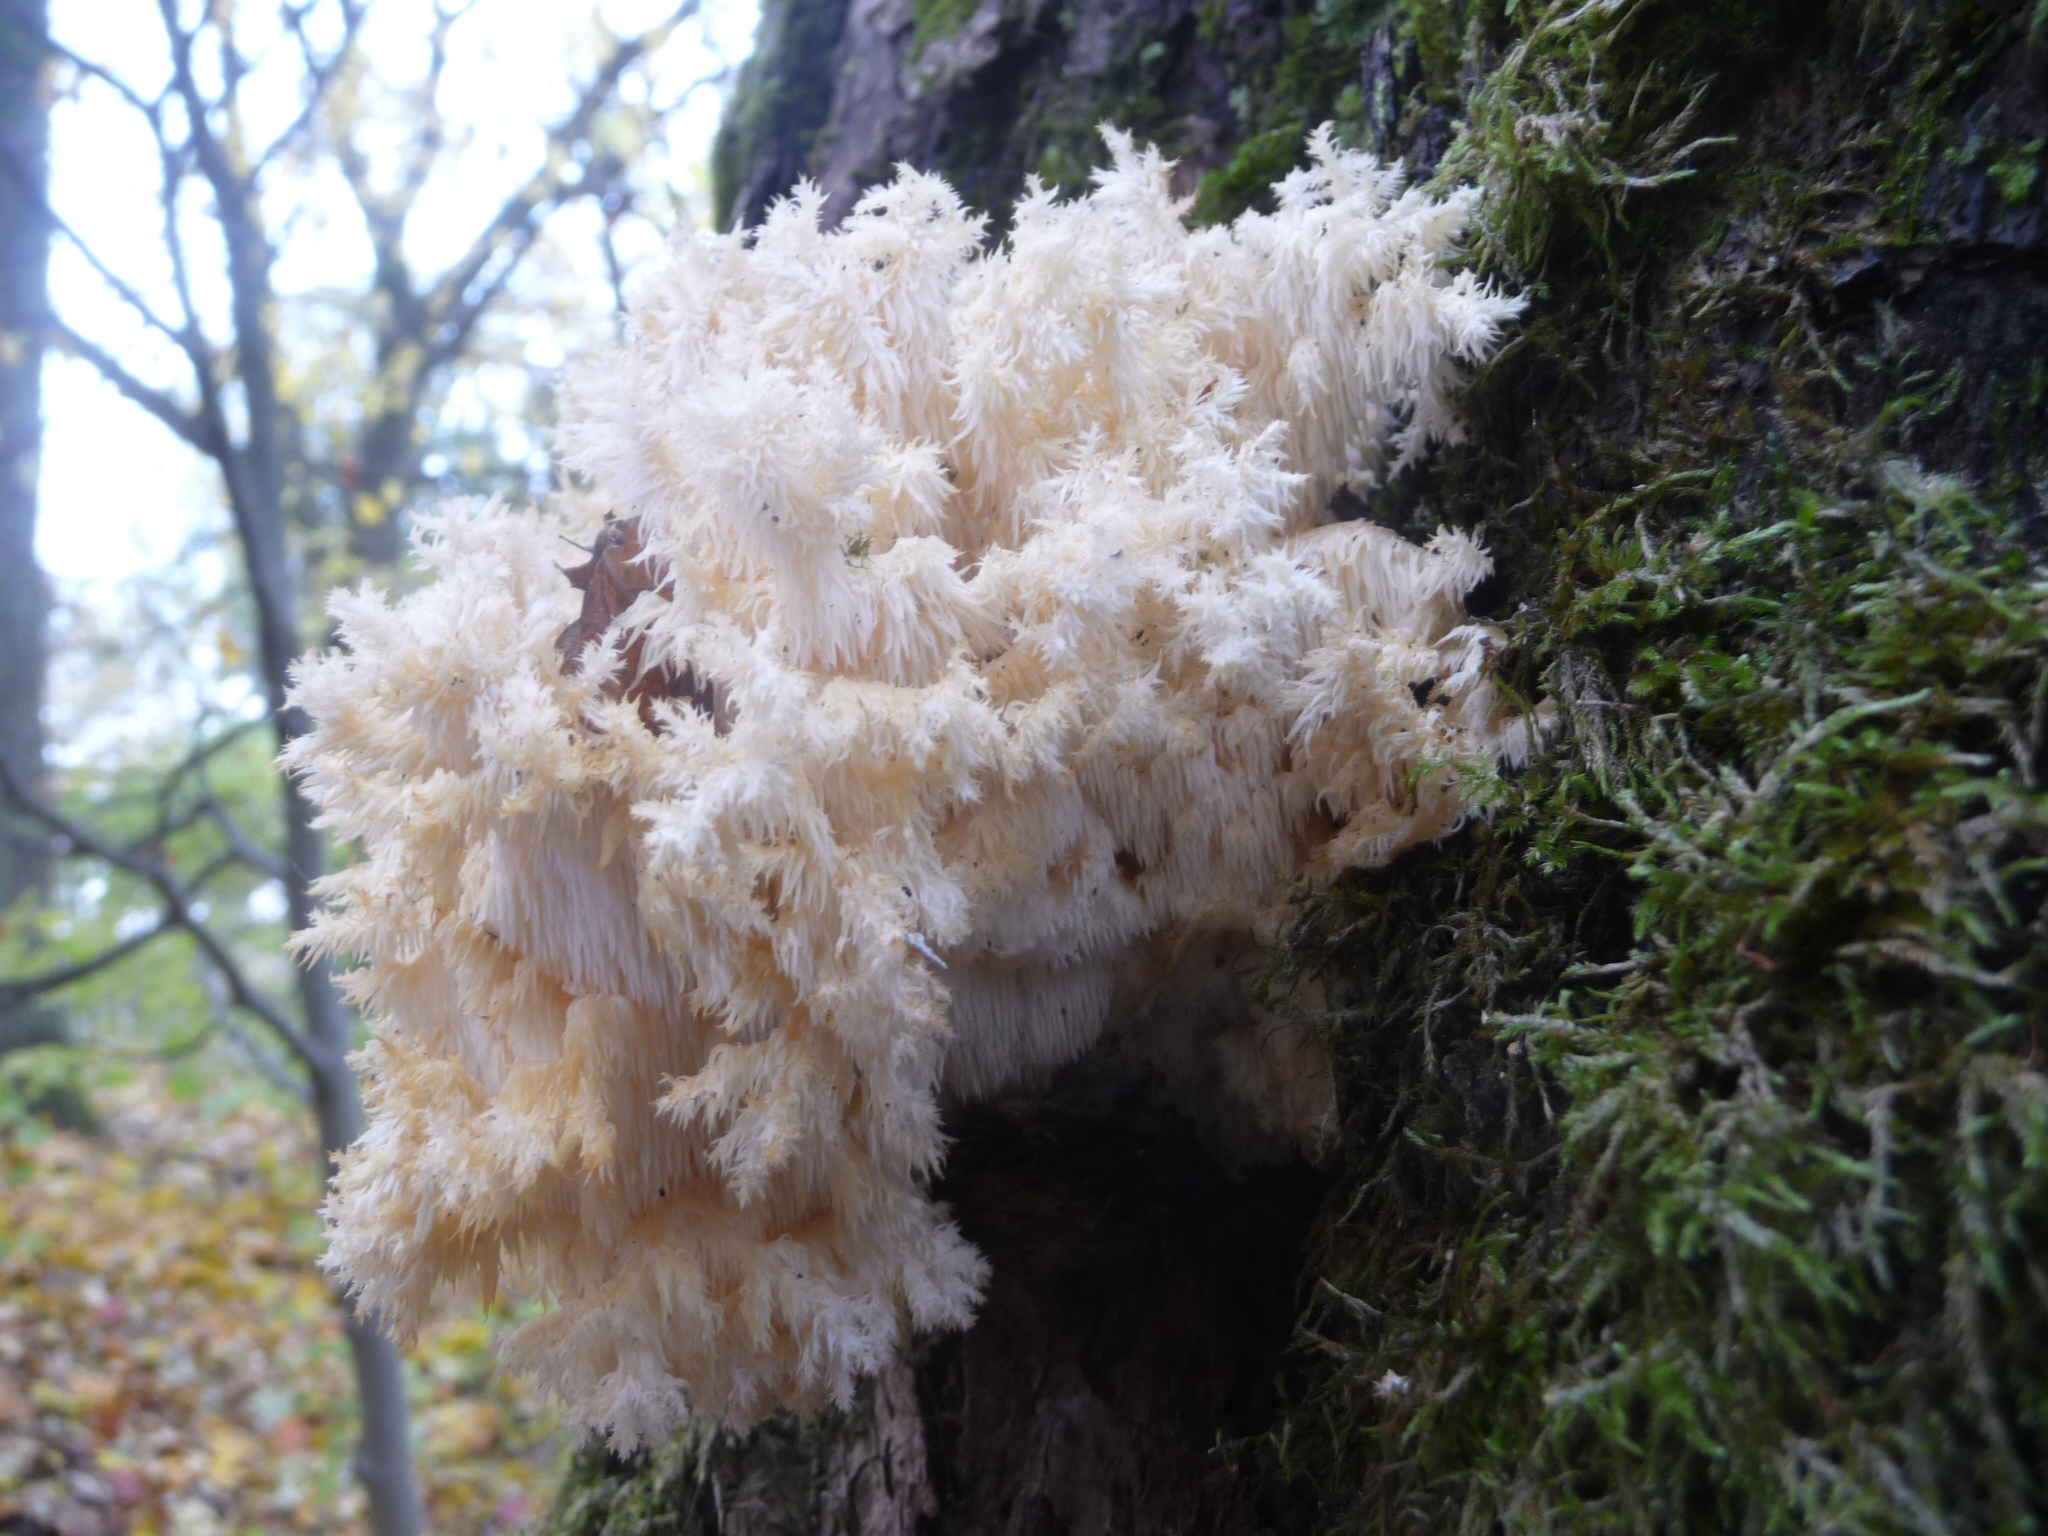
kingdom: Fungi
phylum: Basidiomycota
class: Agaricomycetes
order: Russulales
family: Hericiaceae
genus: Hericium
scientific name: Hericium coralloides
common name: Coral tooth
